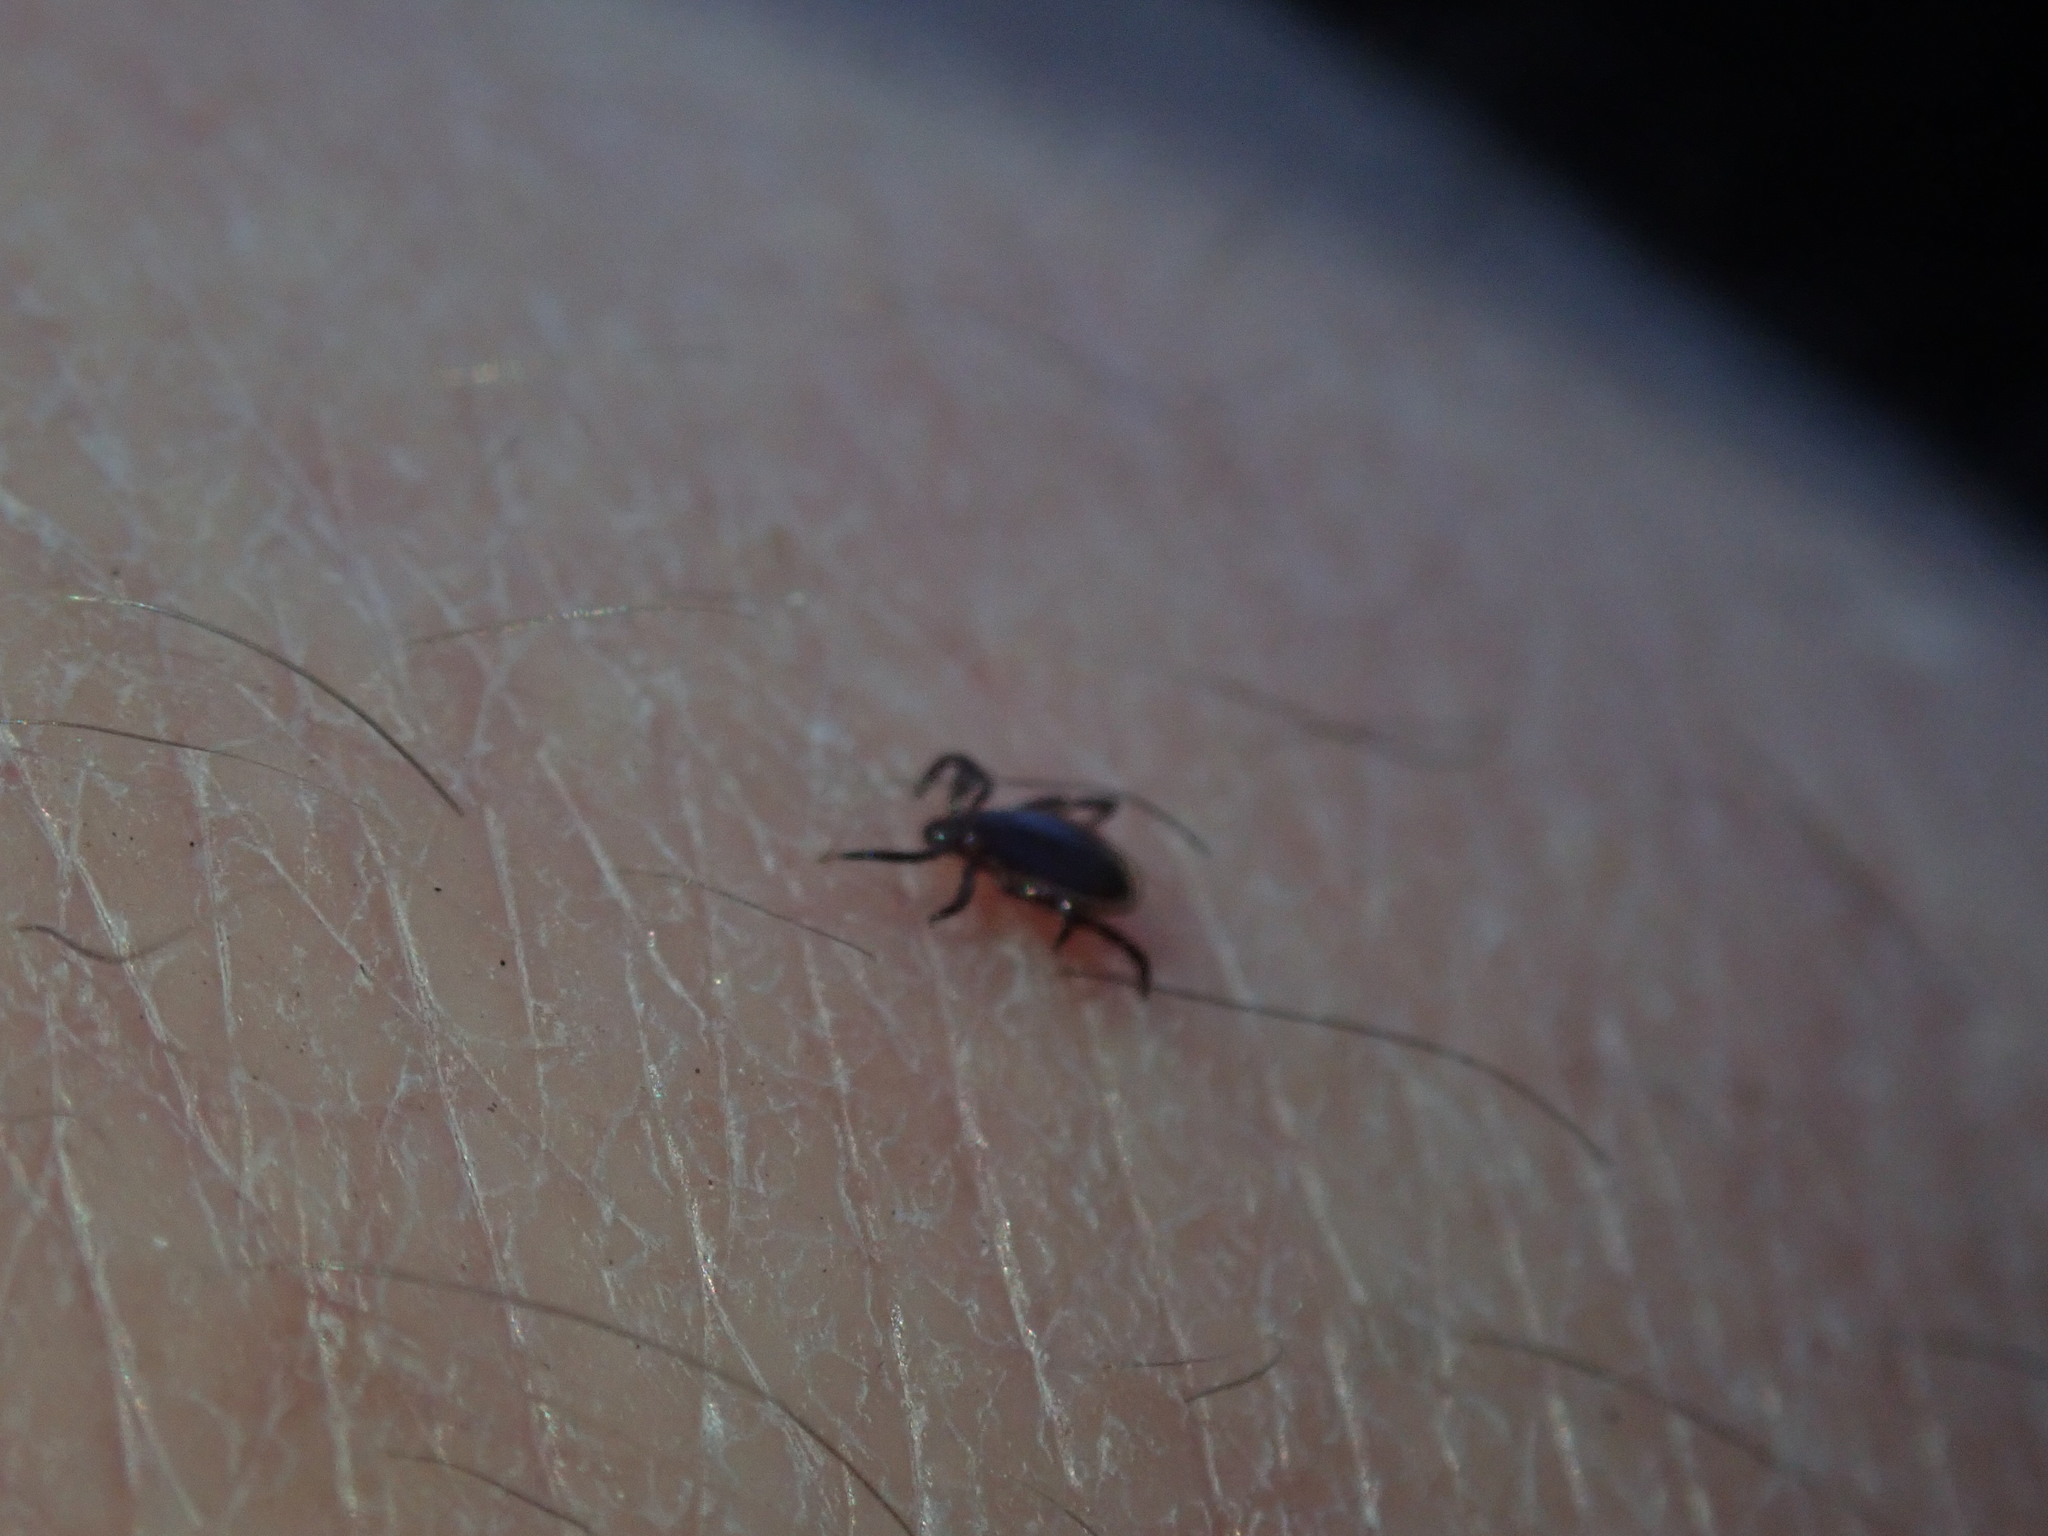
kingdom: Animalia
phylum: Arthropoda
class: Arachnida
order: Ixodida
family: Ixodidae
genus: Ixodes
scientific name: Ixodes scapularis
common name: Black legged tick
